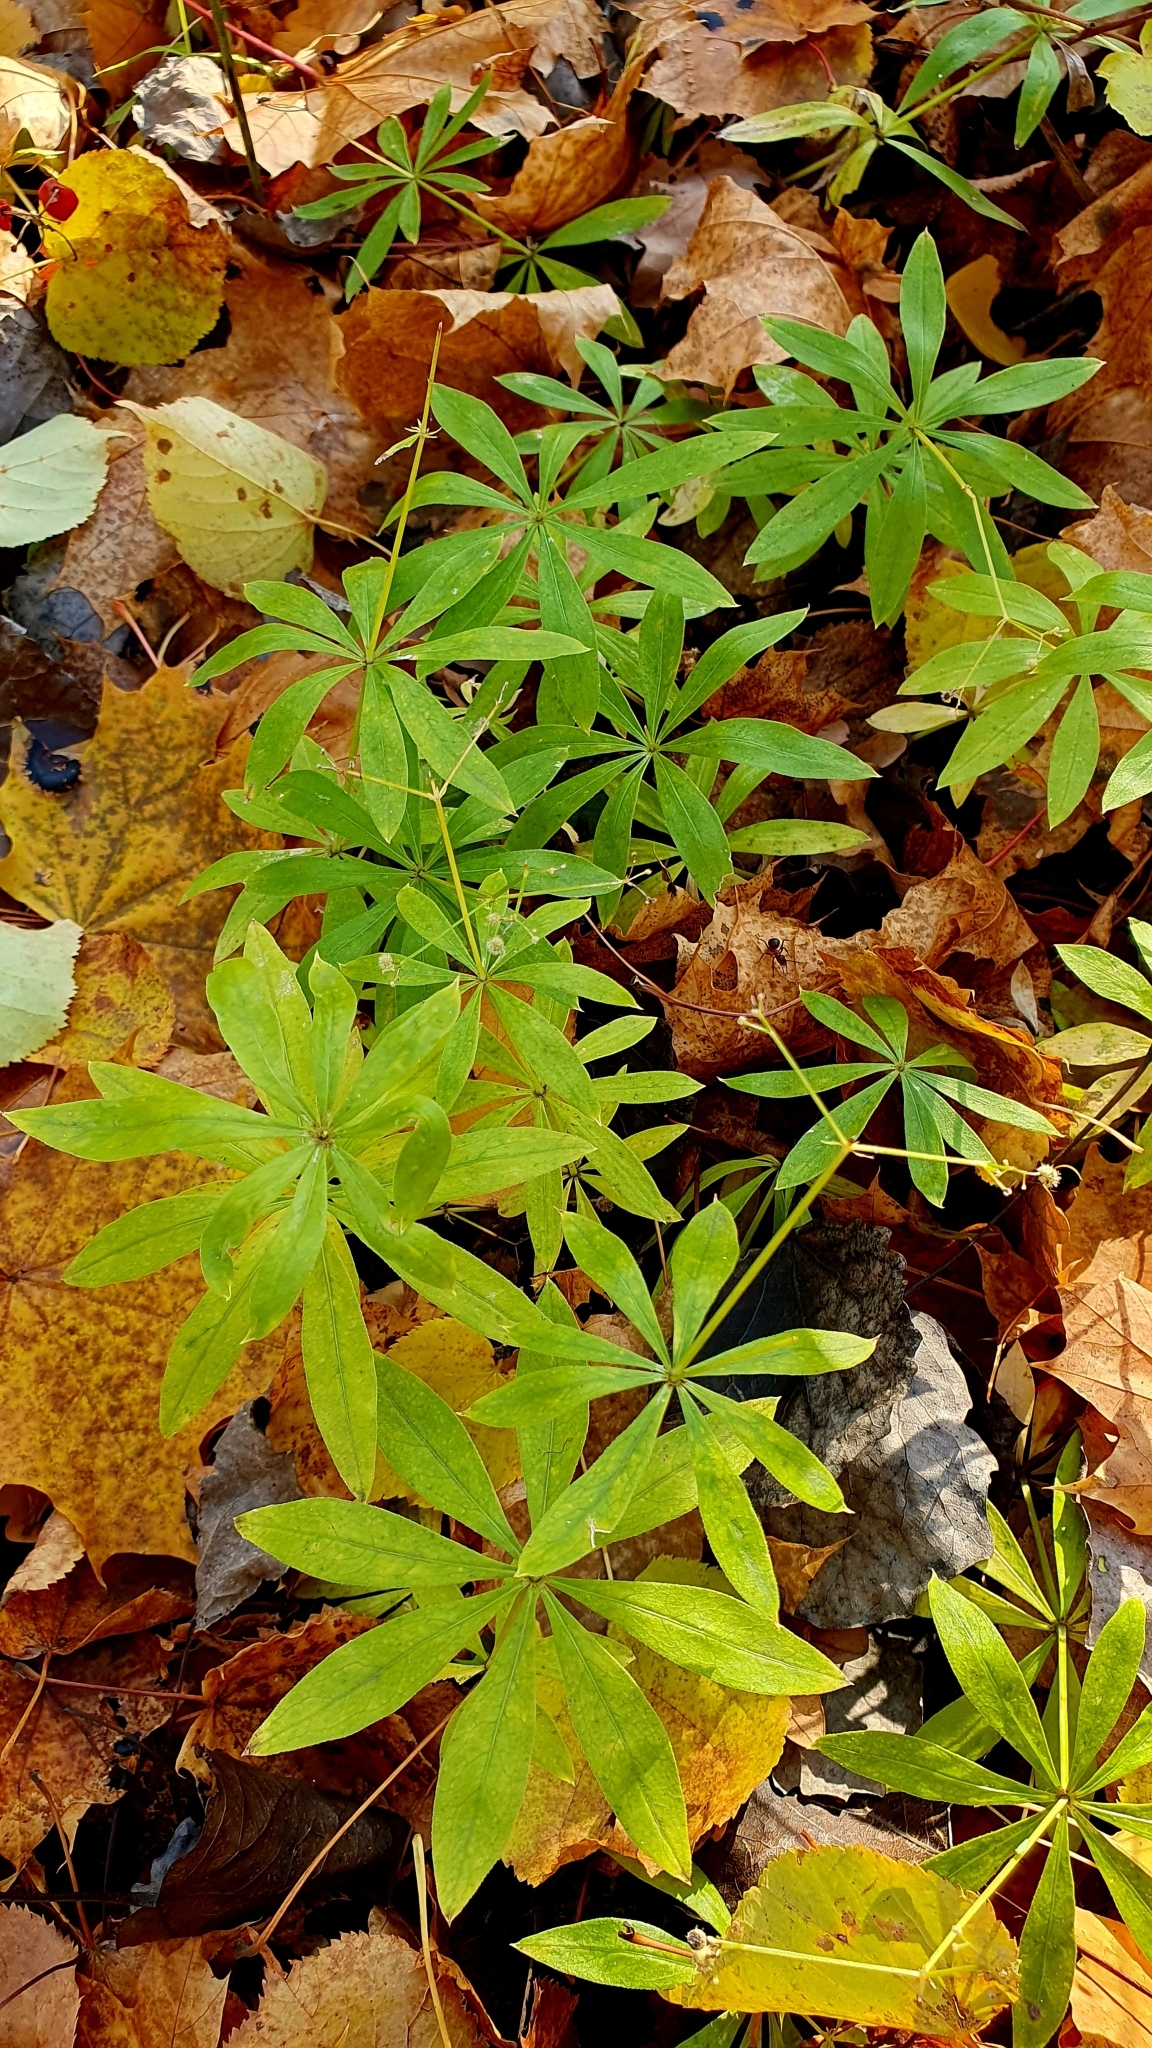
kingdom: Plantae
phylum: Tracheophyta
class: Magnoliopsida
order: Gentianales
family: Rubiaceae
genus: Galium
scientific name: Galium odoratum
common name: Sweet woodruff
